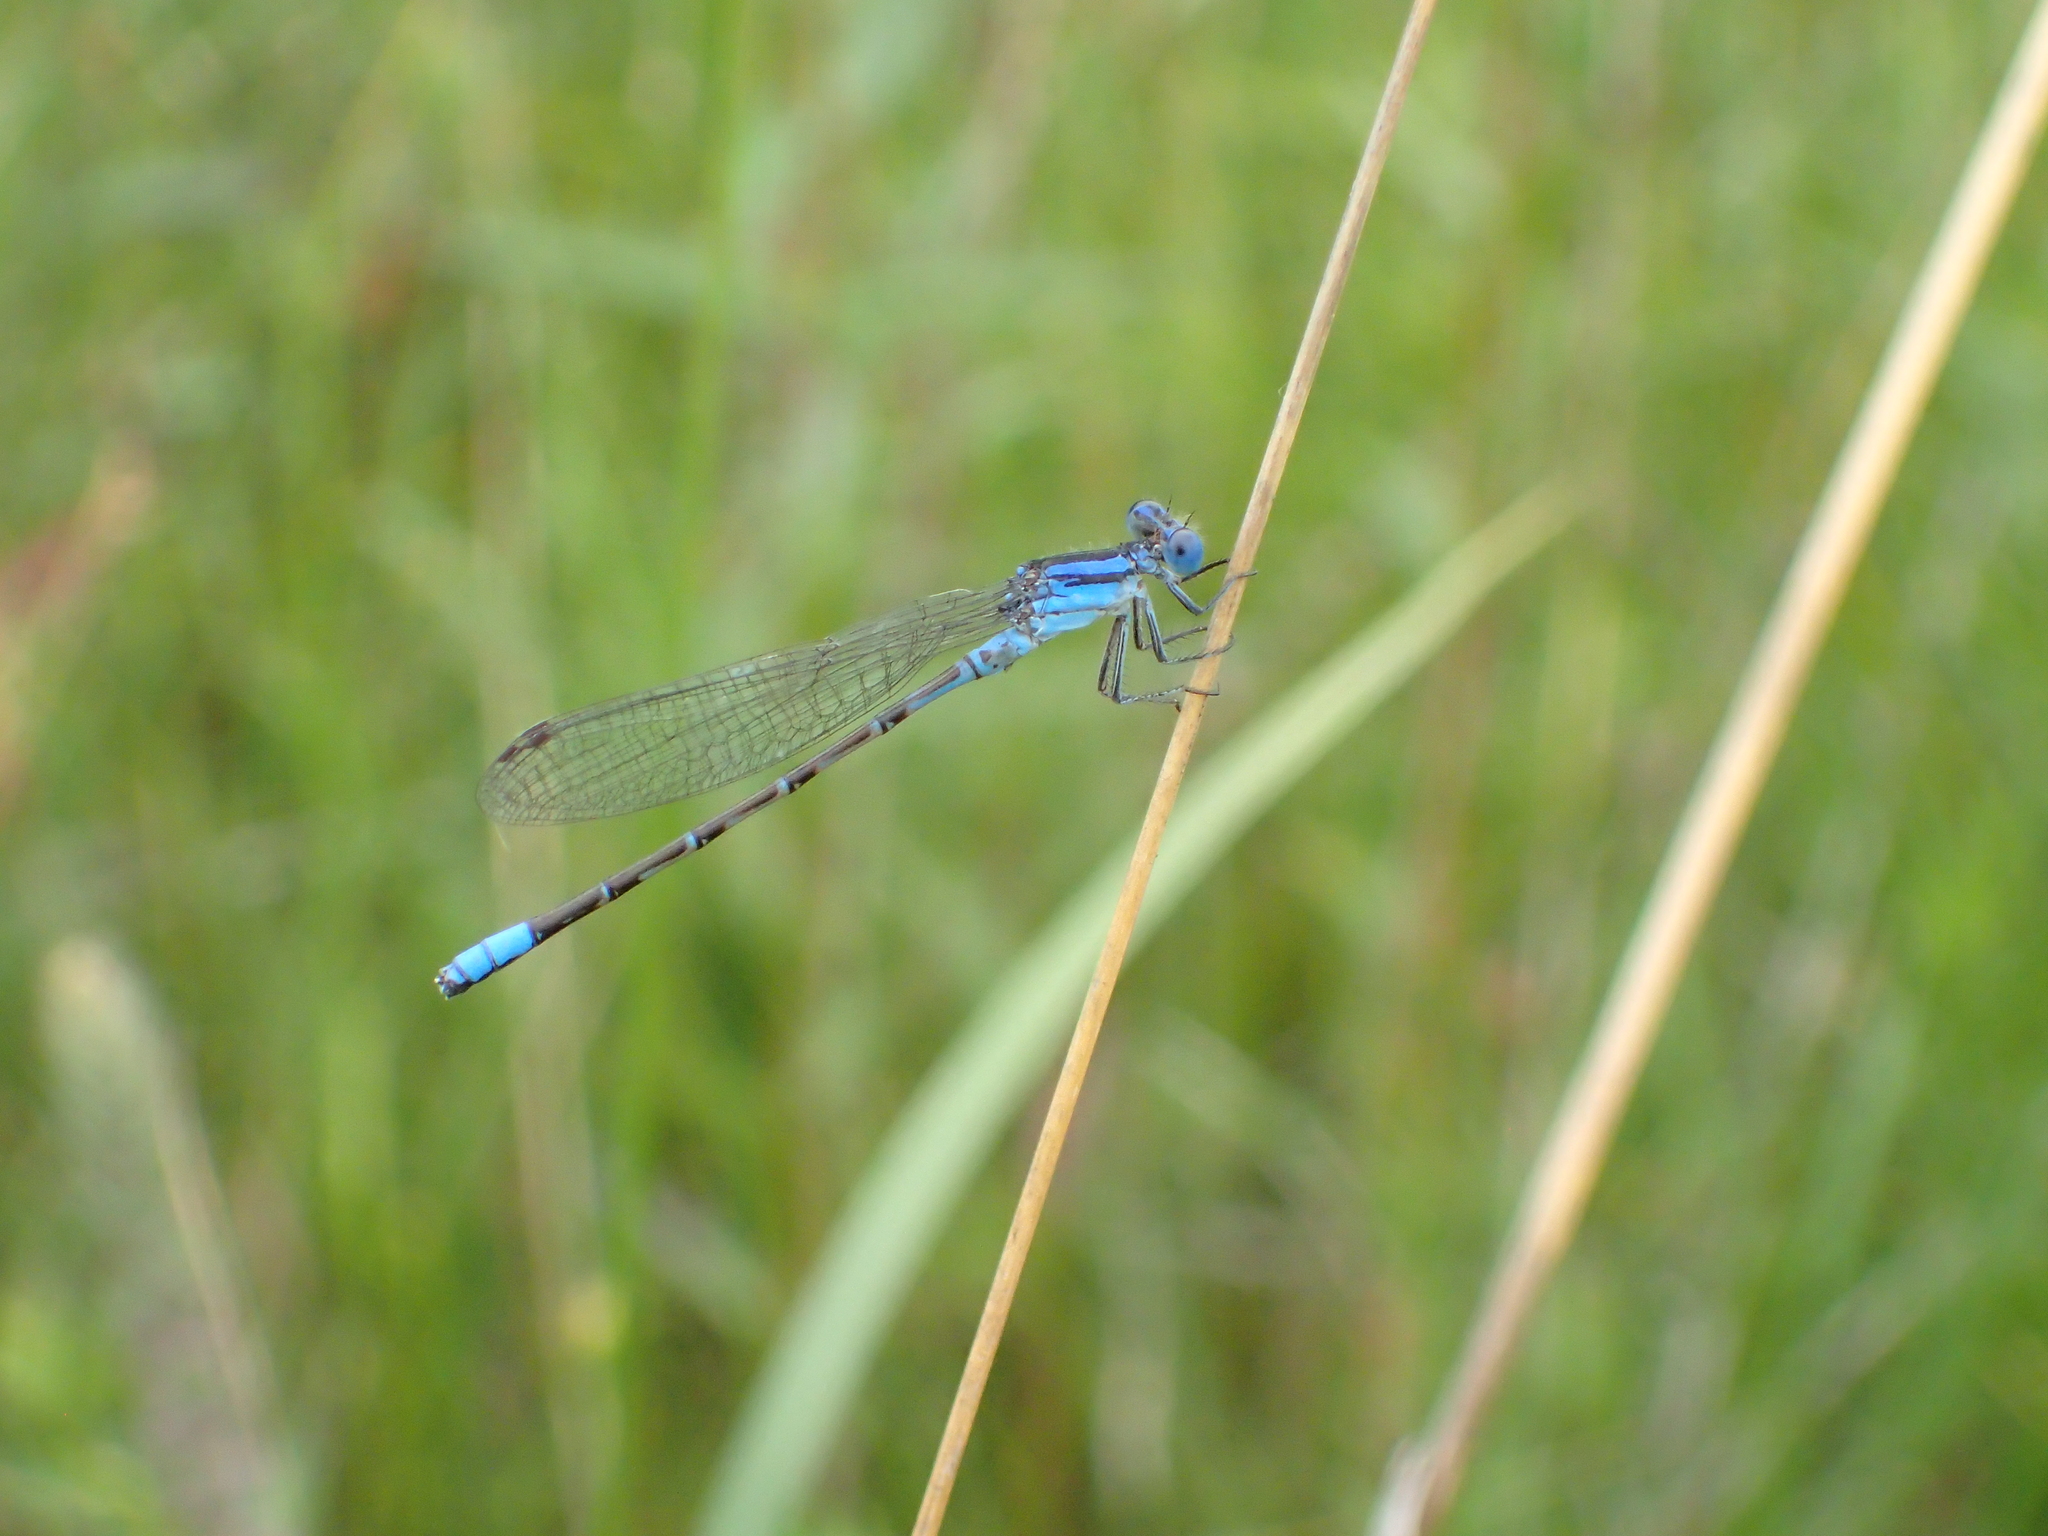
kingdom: Animalia
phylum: Arthropoda
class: Insecta
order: Odonata
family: Coenagrionidae
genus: Argia
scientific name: Argia alberta
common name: Paiute dancer
